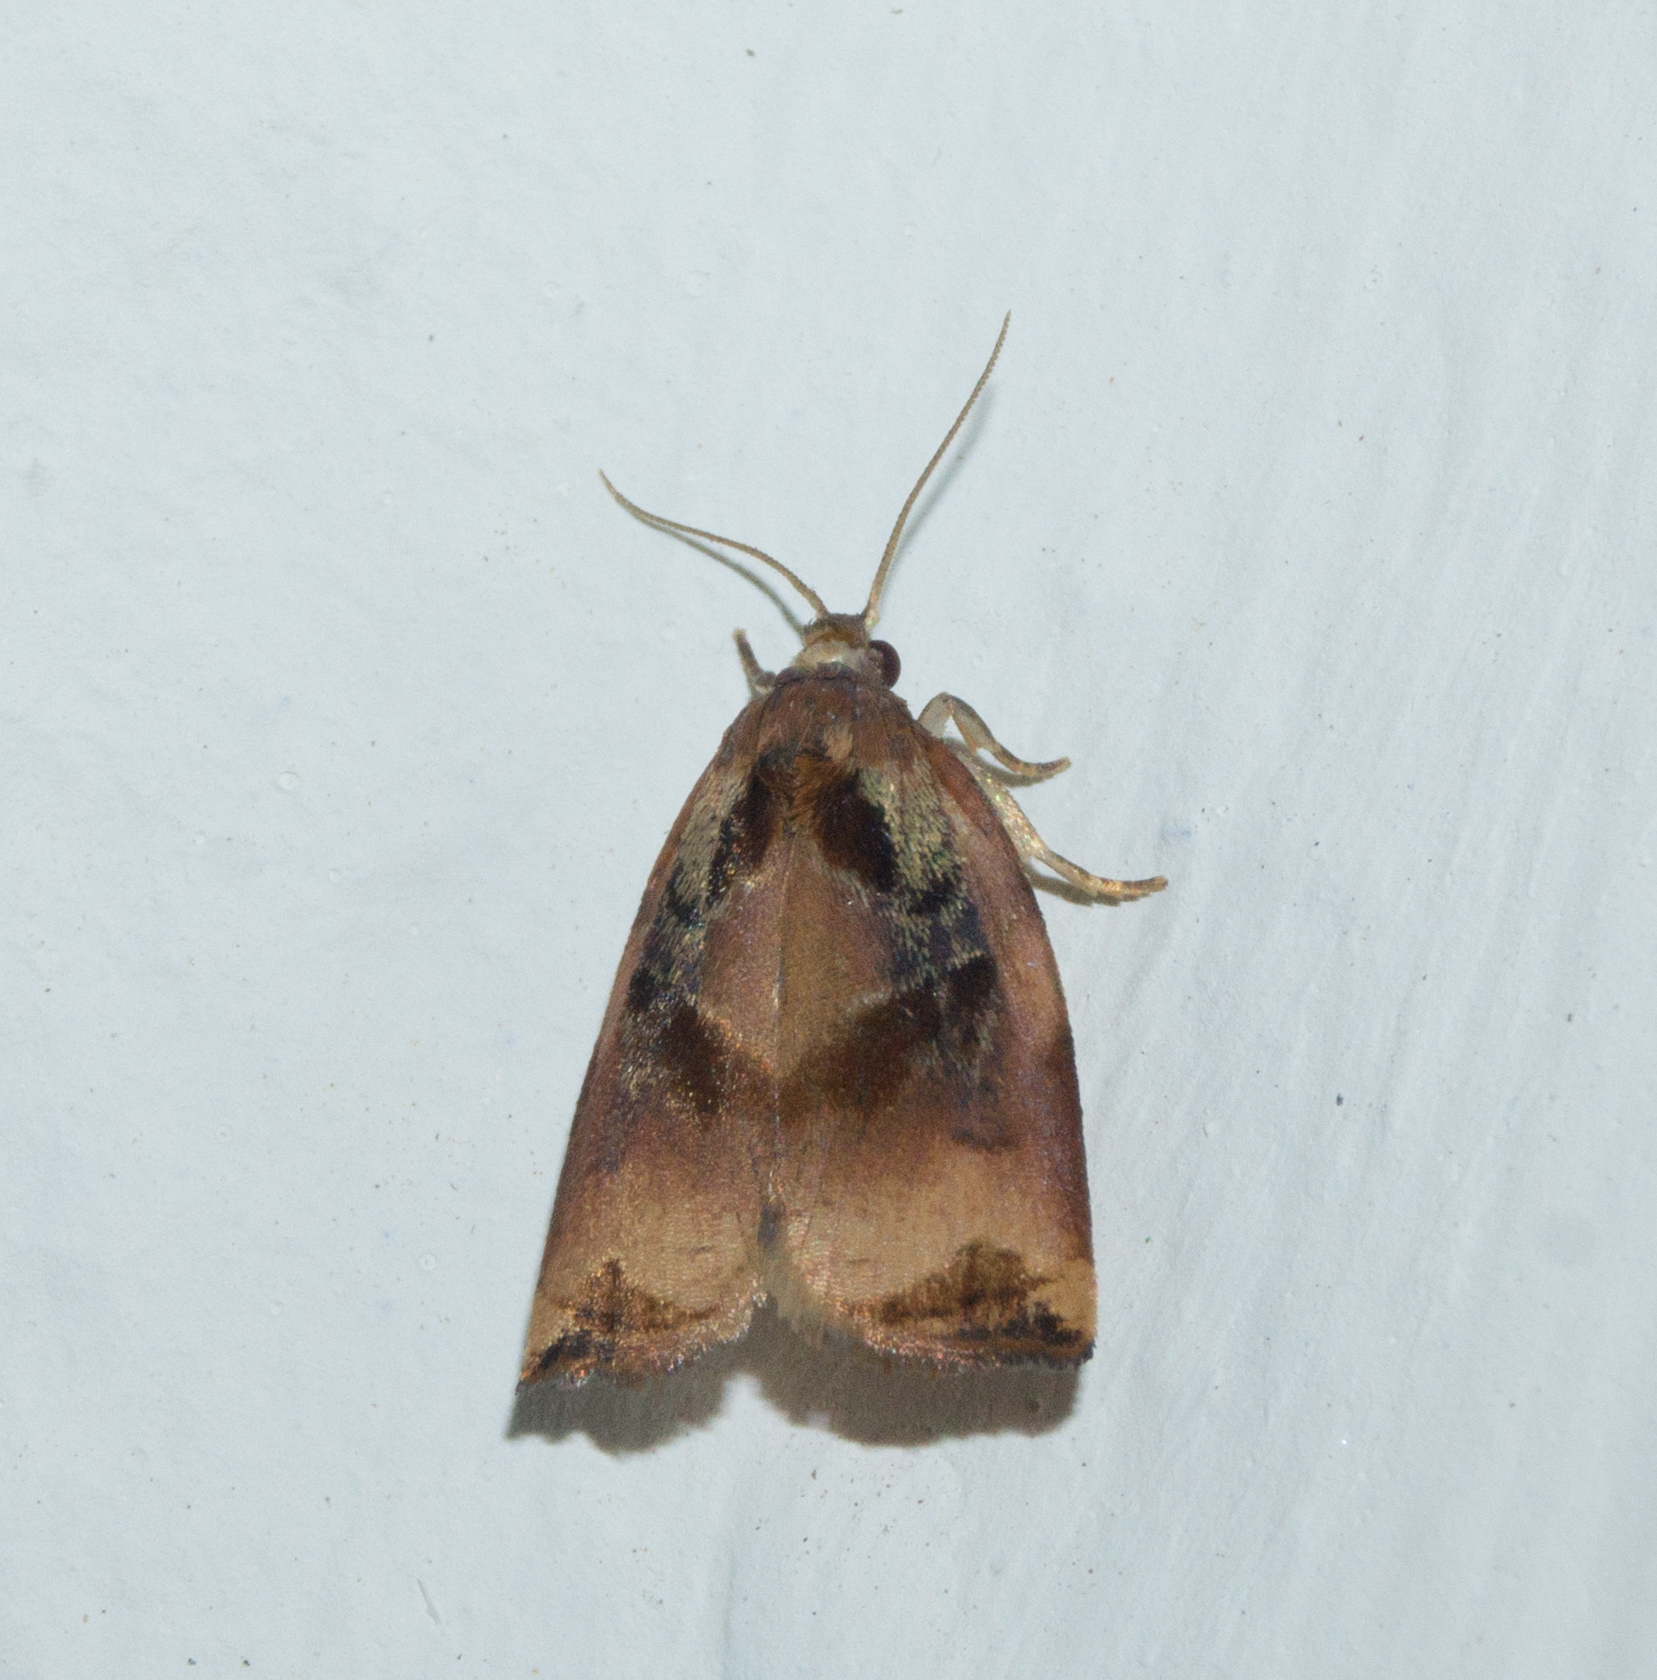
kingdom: Animalia
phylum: Arthropoda
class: Insecta
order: Lepidoptera
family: Tortricidae
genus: Archips
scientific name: Archips podana
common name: Large fruit-tree tortrix
